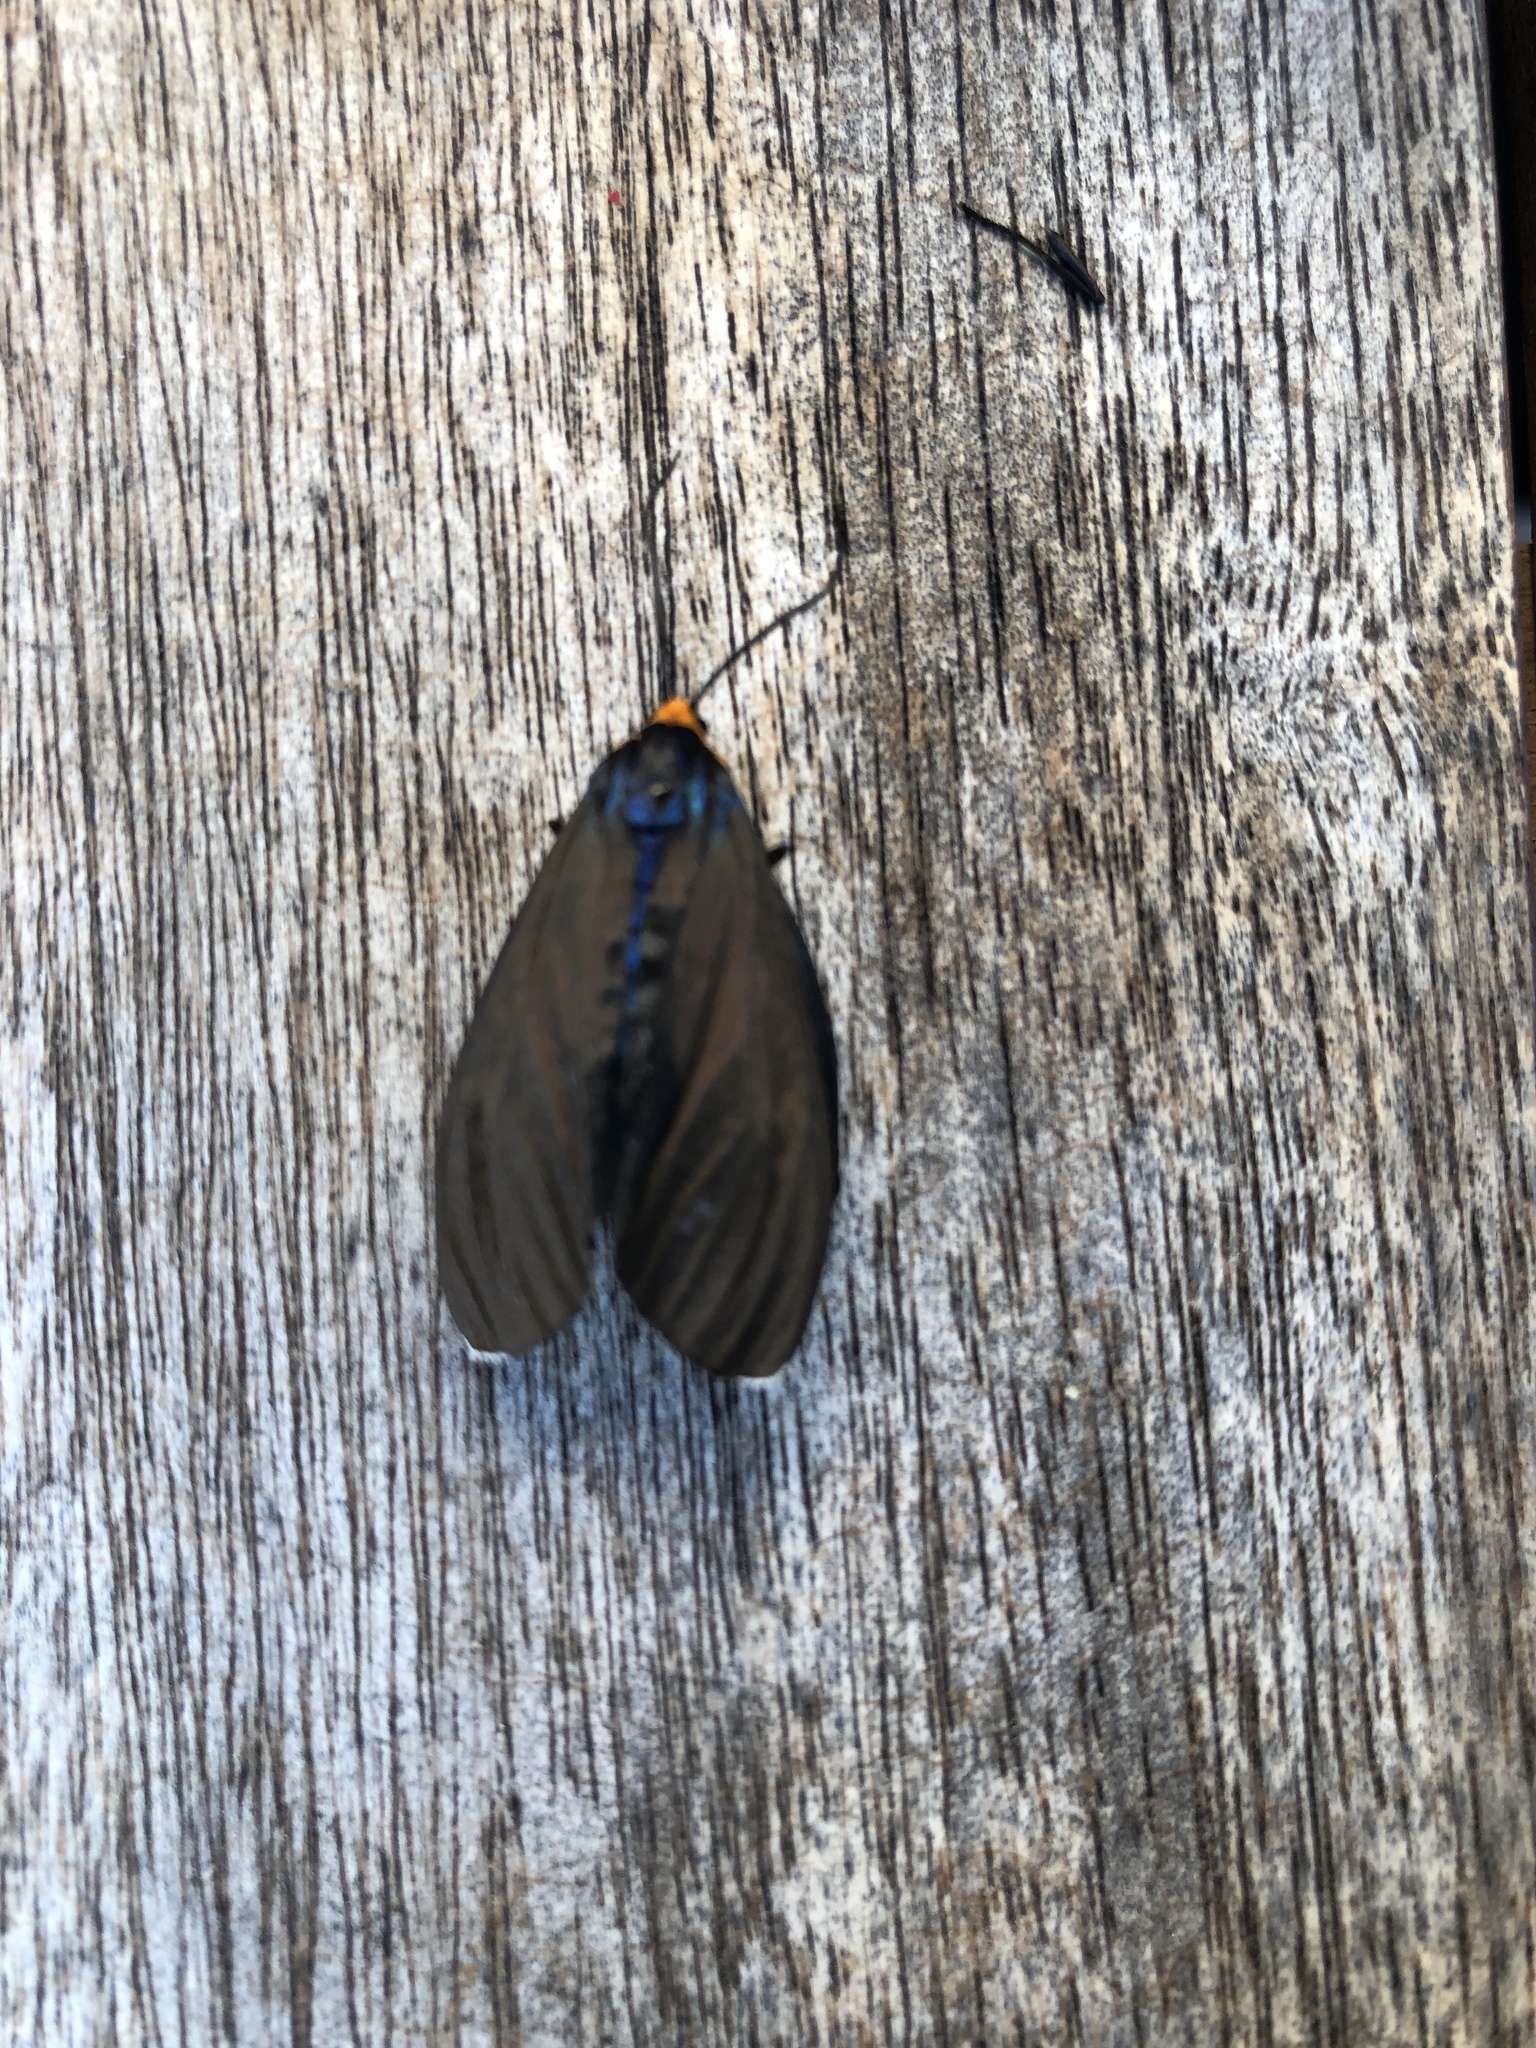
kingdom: Animalia
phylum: Arthropoda
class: Insecta
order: Lepidoptera
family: Erebidae
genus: Ctenucha
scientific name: Ctenucha virginica
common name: Virginia ctenucha moth
